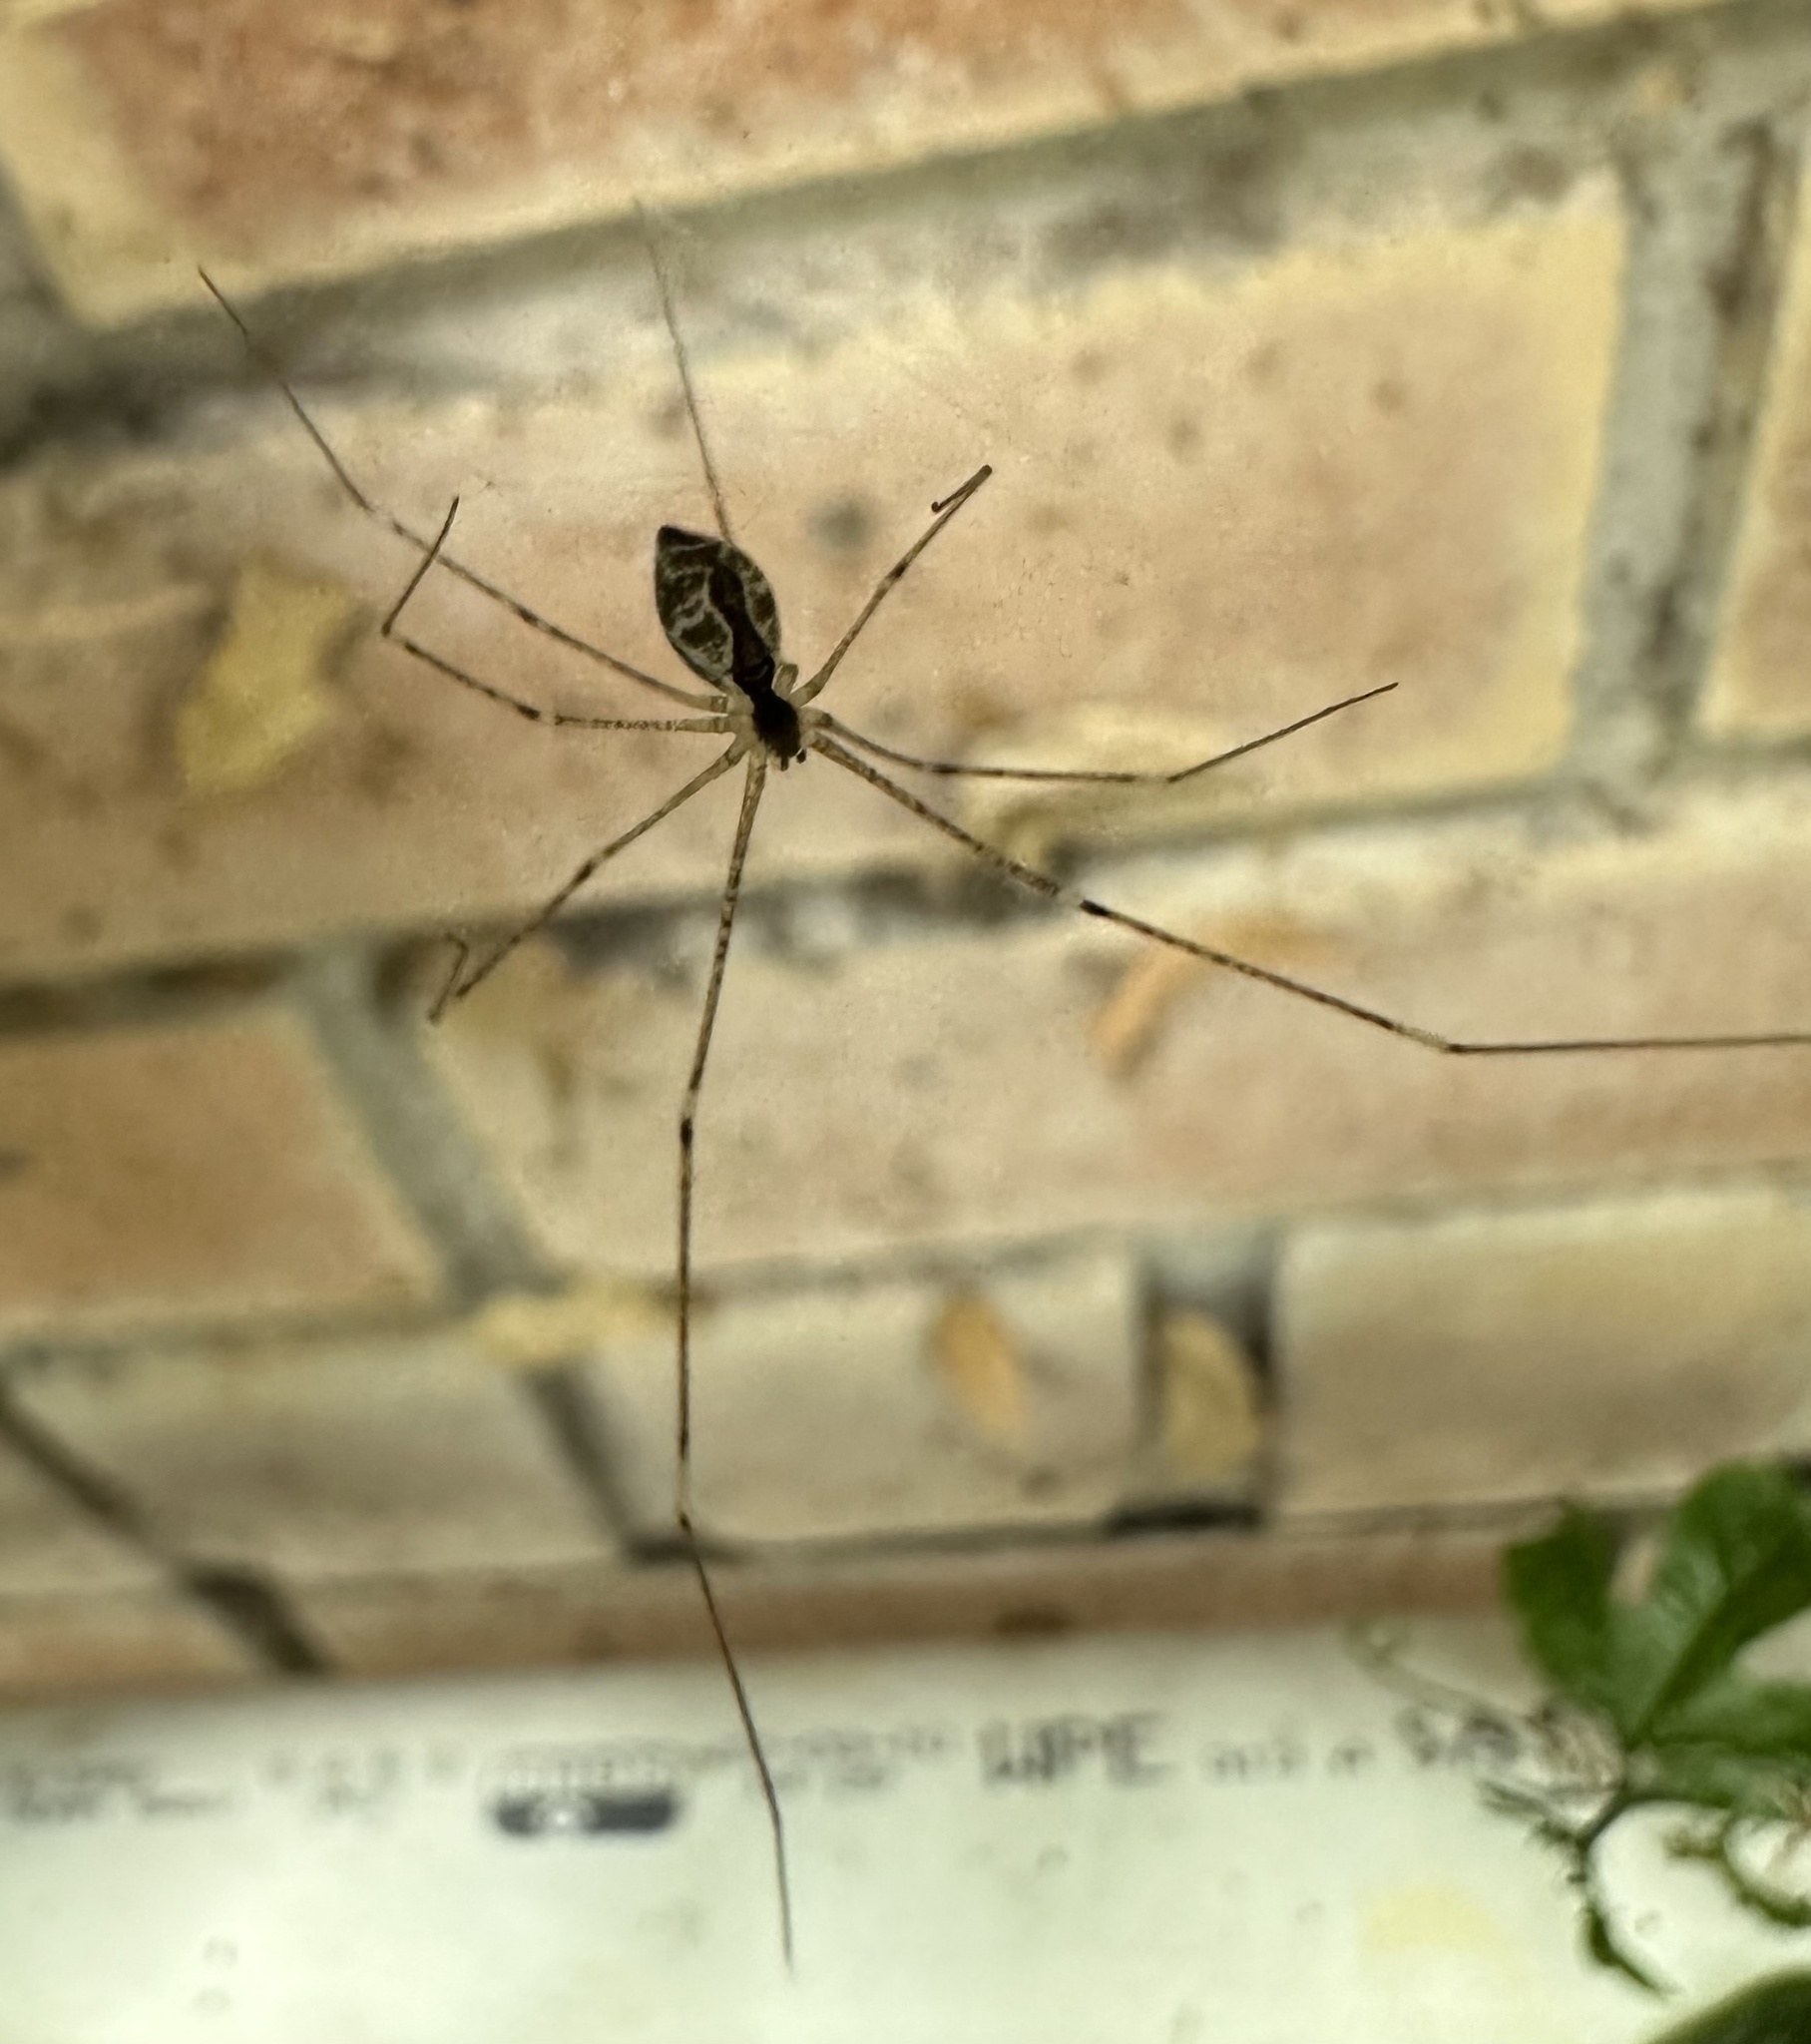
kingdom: Animalia
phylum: Arthropoda
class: Arachnida
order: Araneae
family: Pholcidae
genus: Crossopriza
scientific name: Crossopriza lyoni
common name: Cellar spiders
